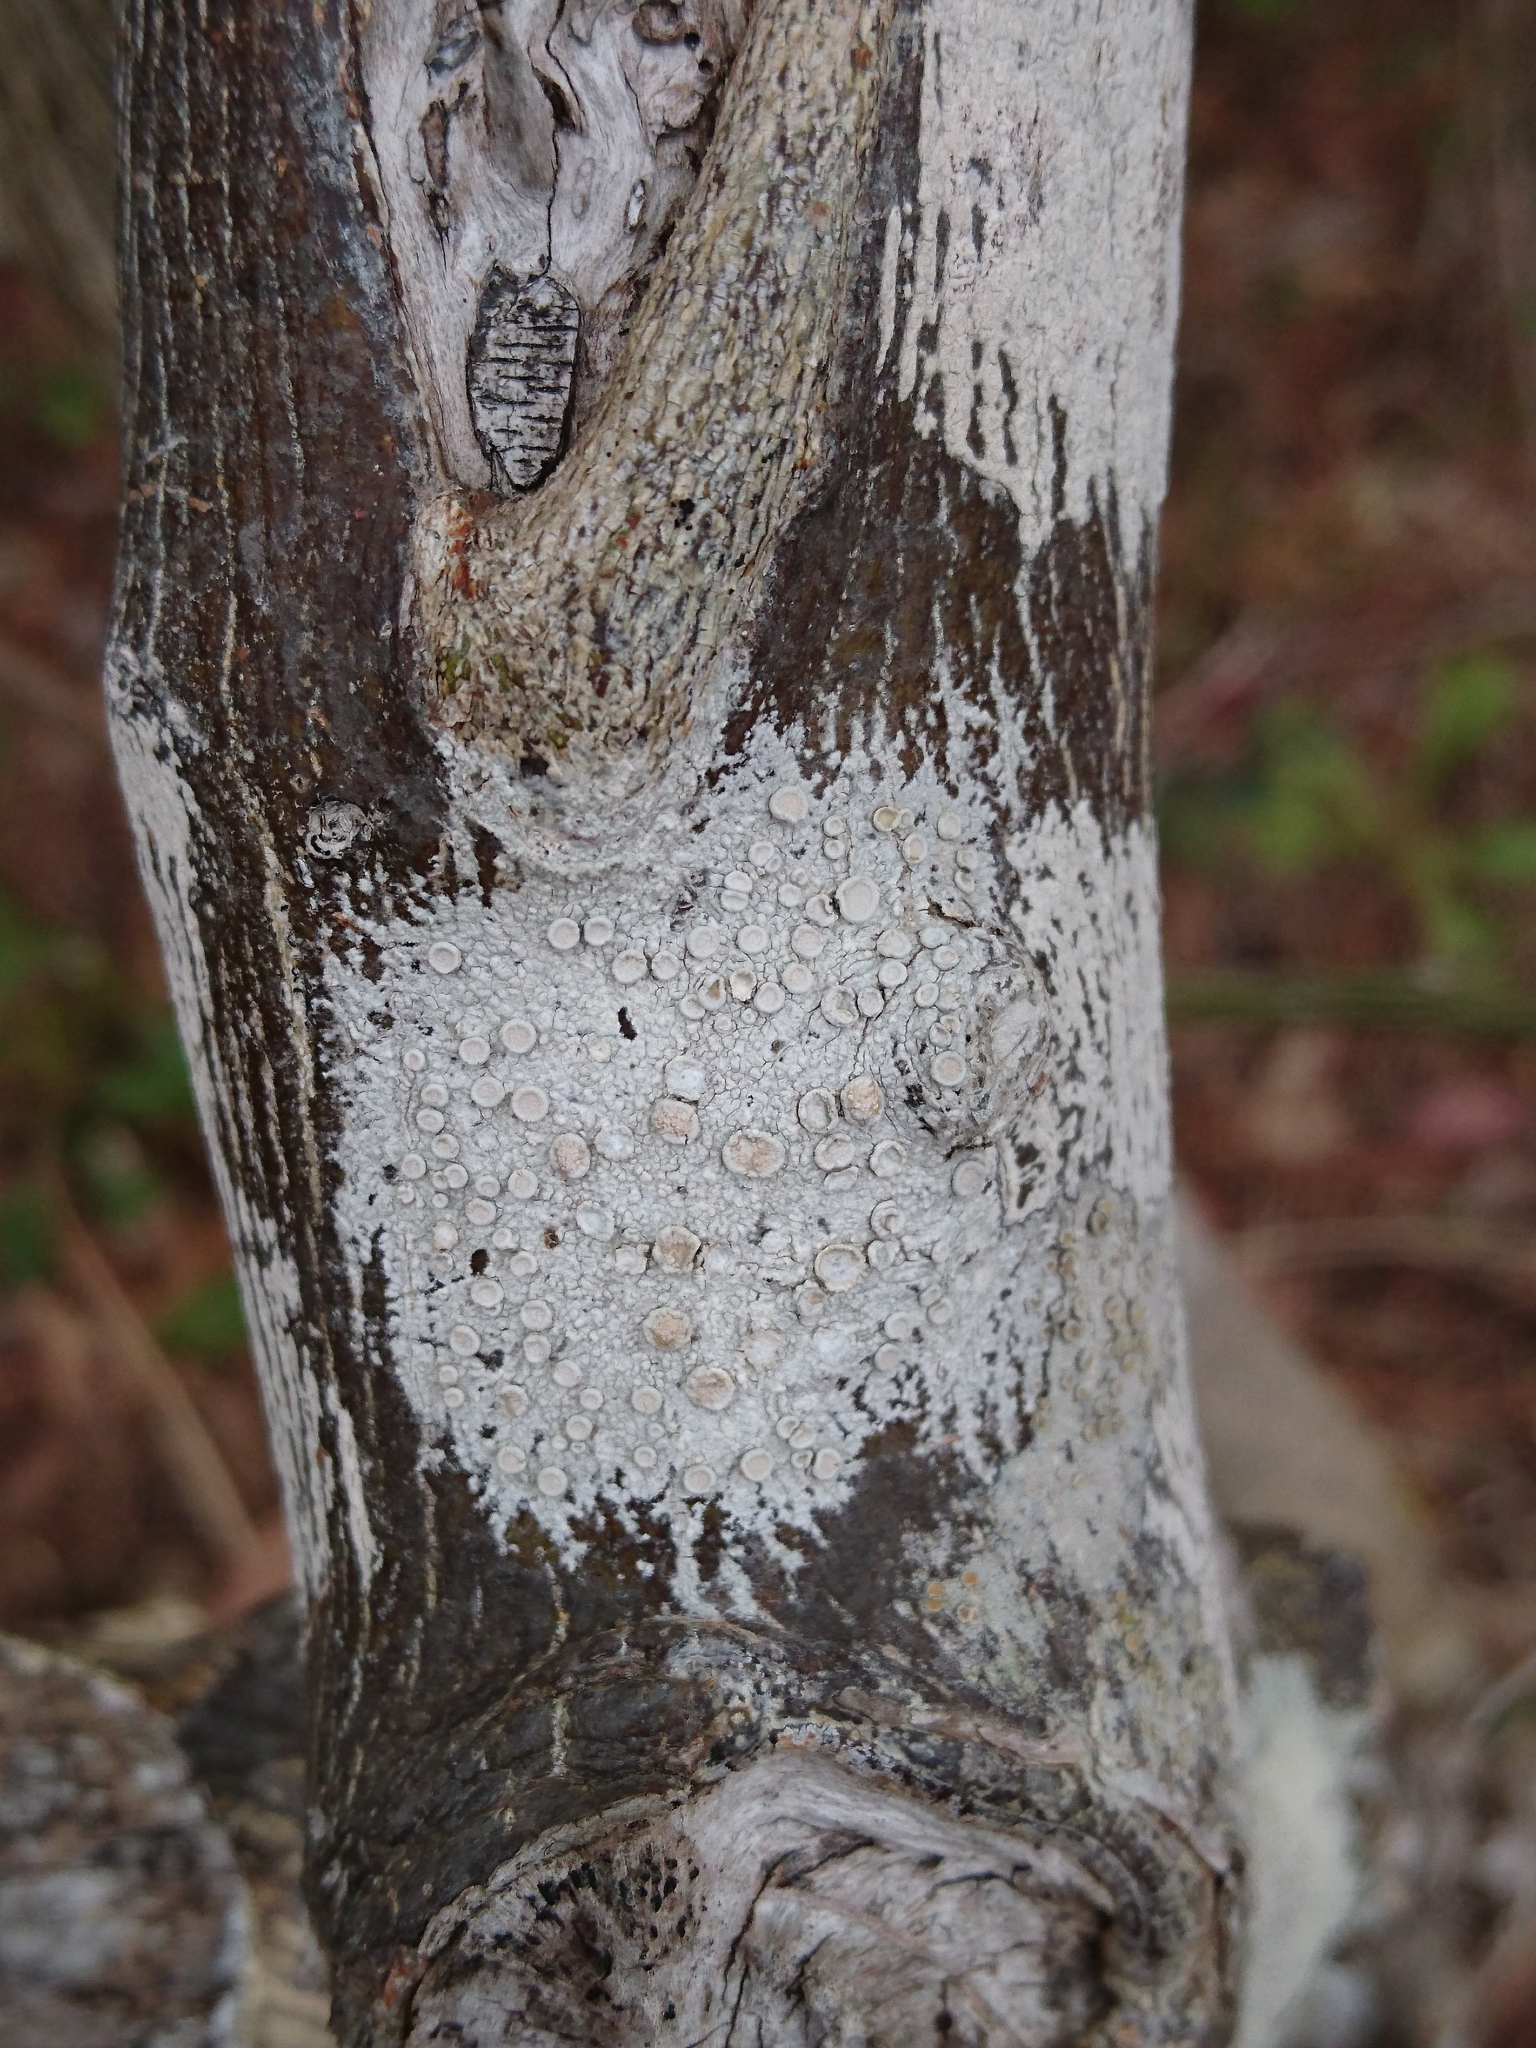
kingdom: Fungi
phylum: Ascomycota
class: Lecanoromycetes
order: Pertusariales
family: Ochrolechiaceae
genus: Ochrolechia
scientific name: Ochrolechia africana
